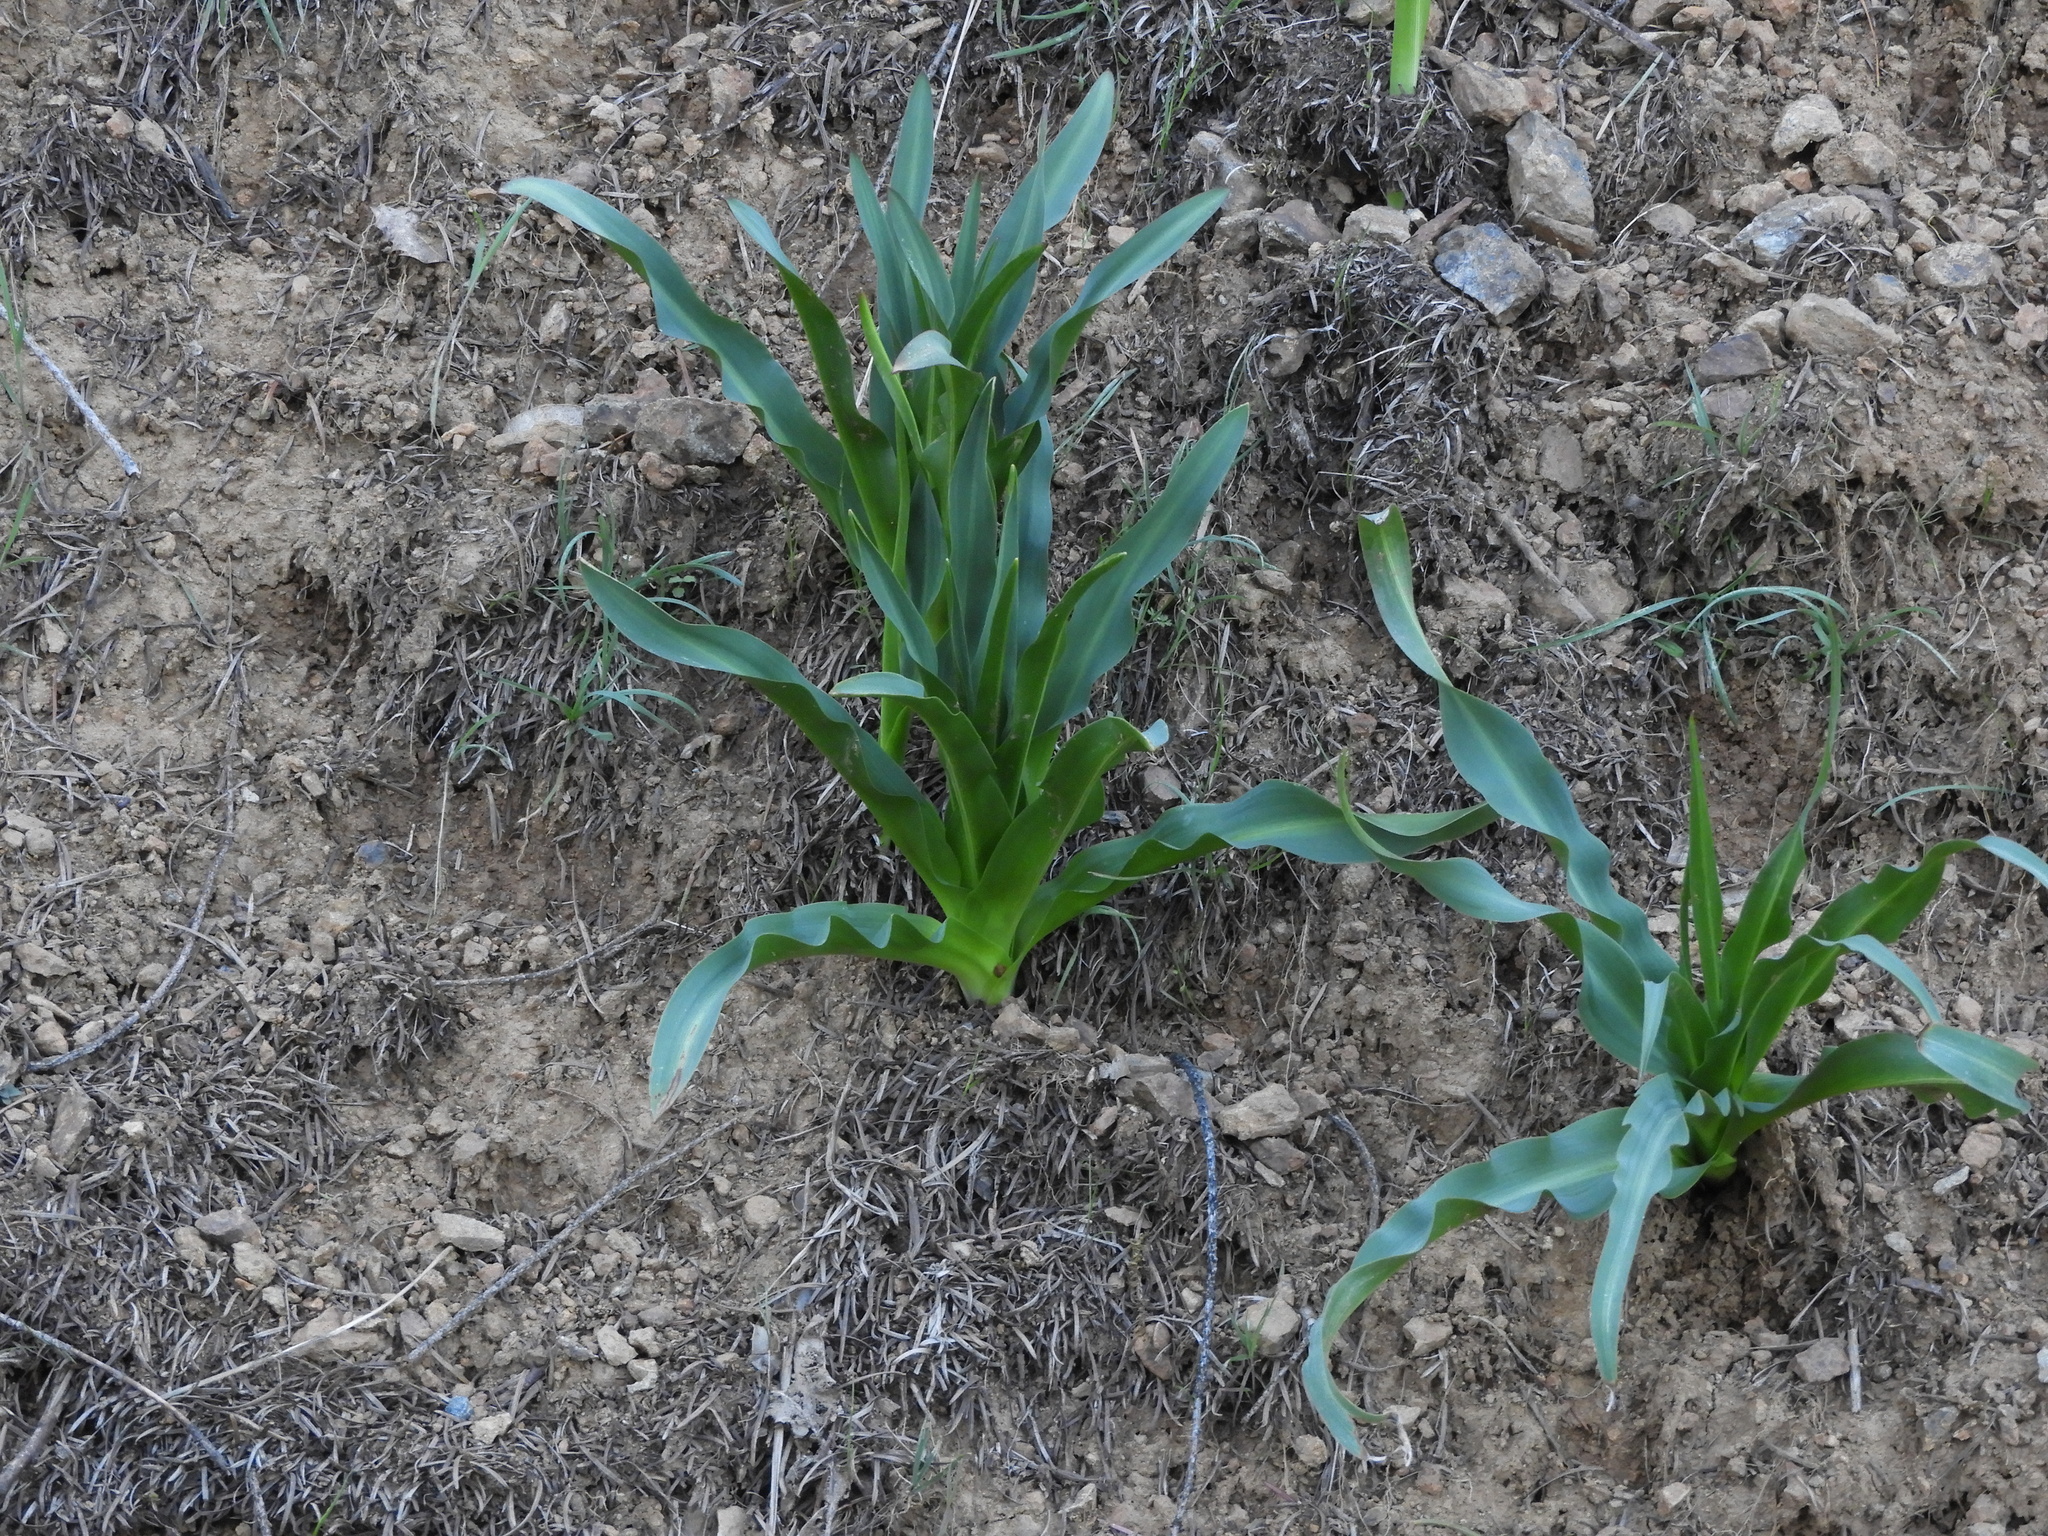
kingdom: Plantae
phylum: Tracheophyta
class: Liliopsida
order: Asparagales
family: Asparagaceae
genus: Chlorogalum
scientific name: Chlorogalum pomeridianum
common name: Amole
